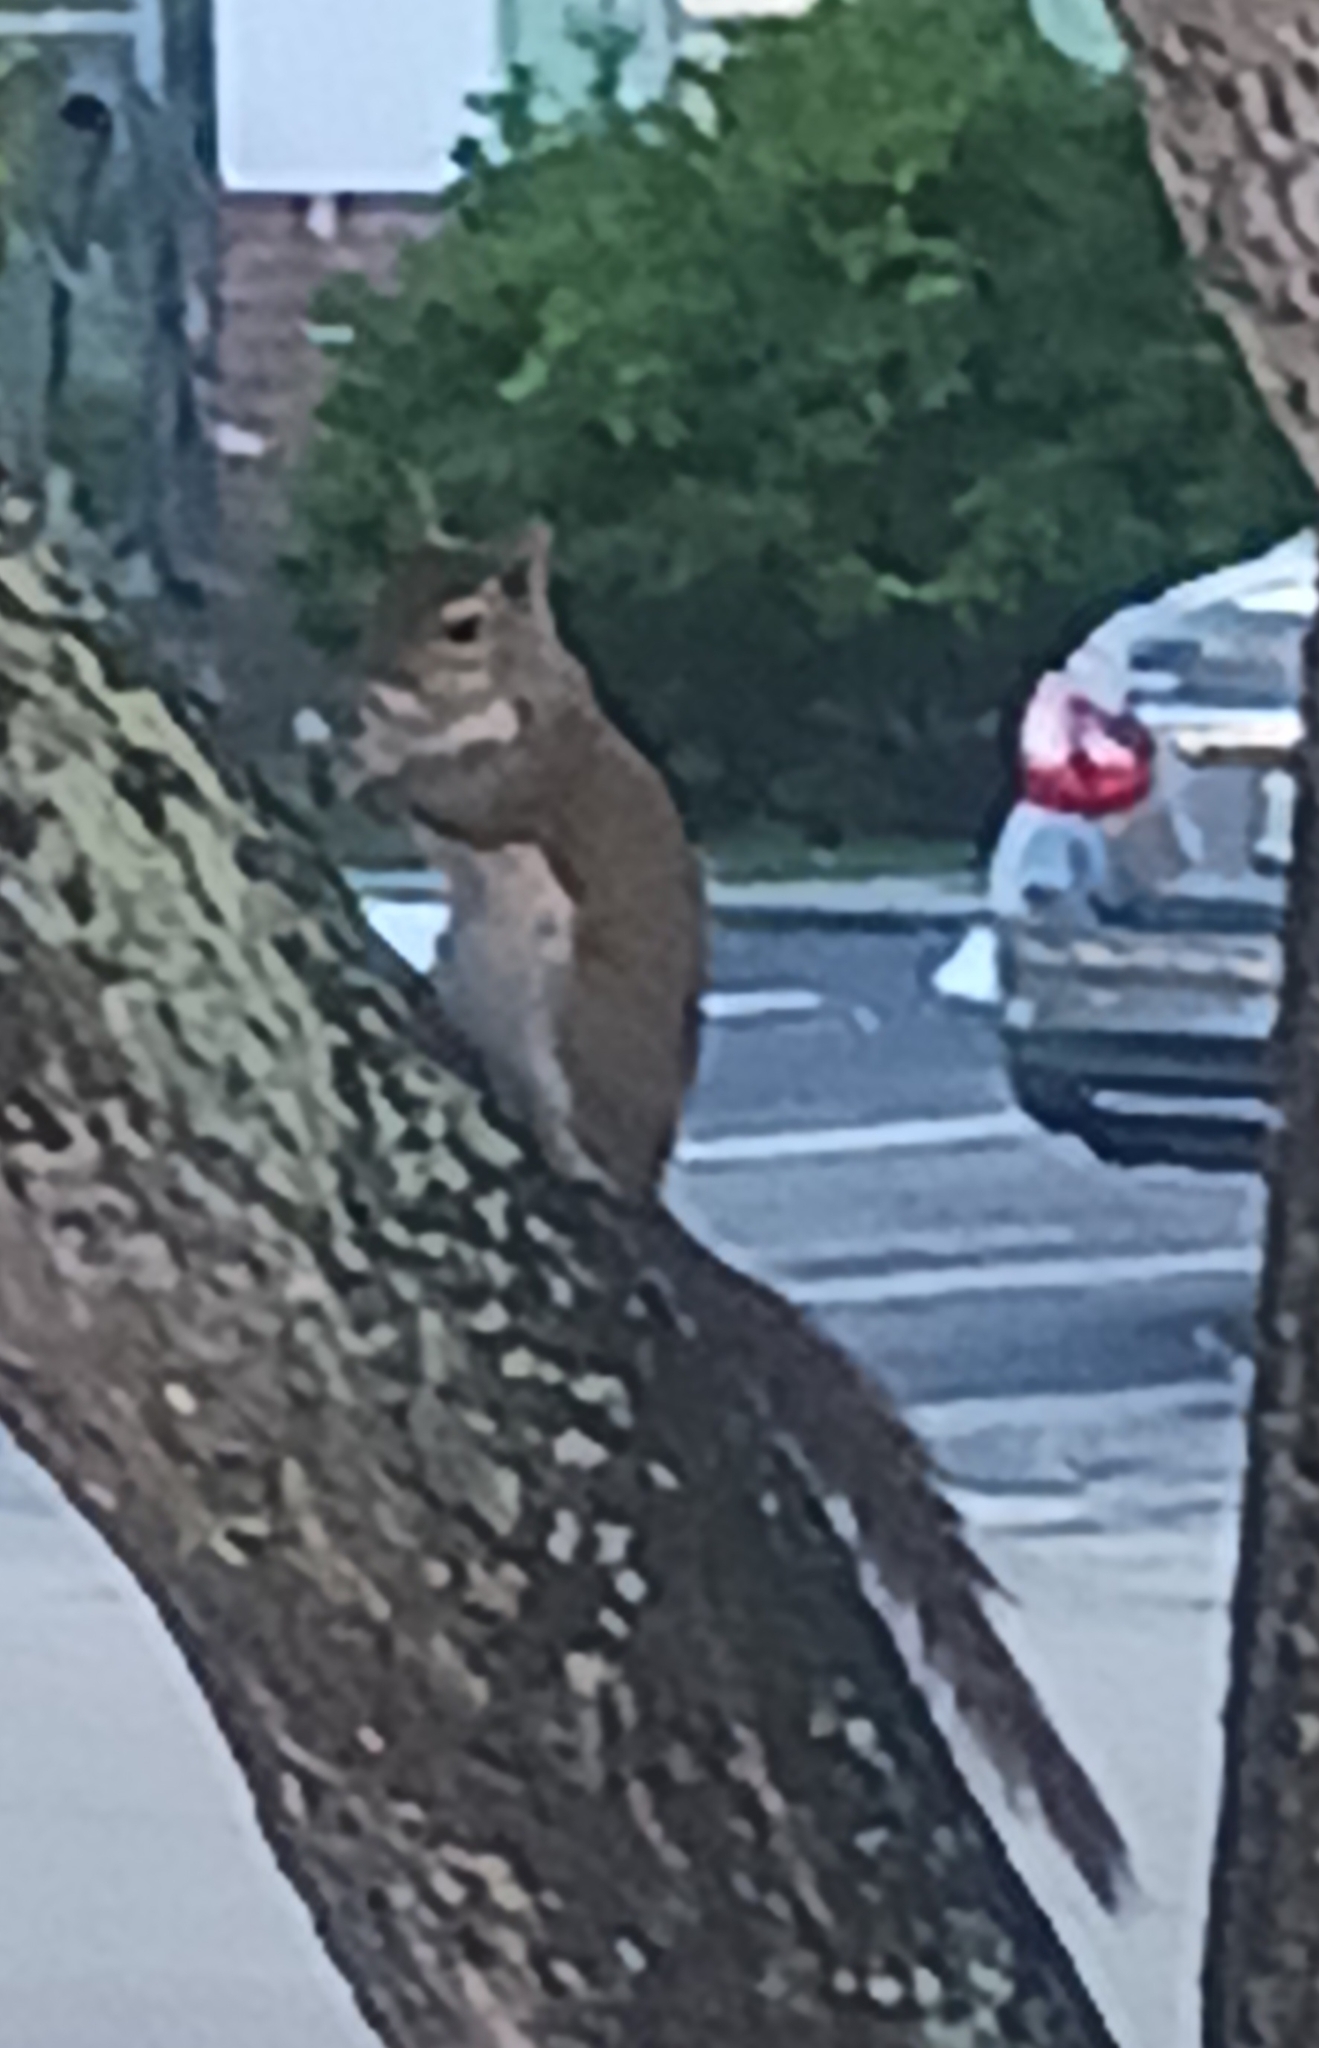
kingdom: Animalia
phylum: Chordata
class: Mammalia
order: Rodentia
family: Sciuridae
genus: Sciurus
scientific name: Sciurus carolinensis
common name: Eastern gray squirrel
